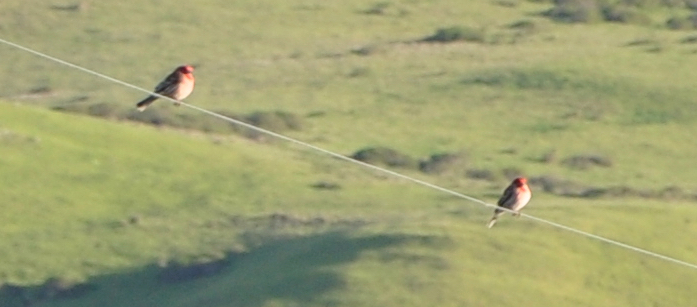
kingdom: Animalia
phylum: Chordata
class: Aves
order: Passeriformes
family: Fringillidae
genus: Haemorhous
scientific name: Haemorhous mexicanus
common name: House finch
